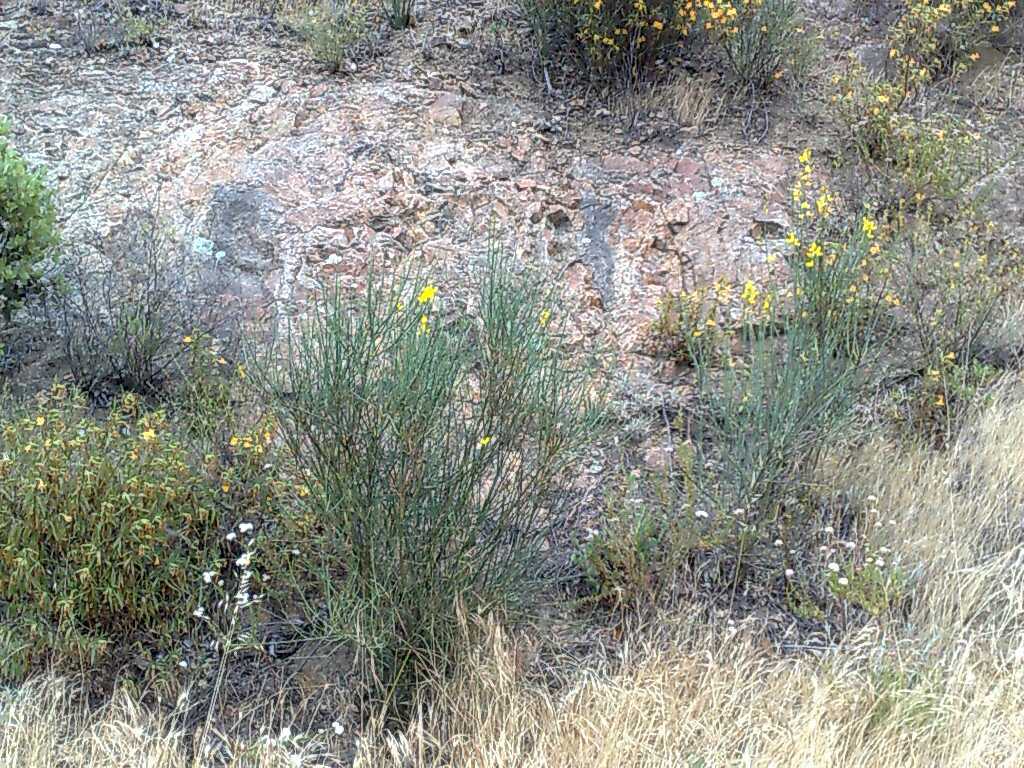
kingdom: Plantae
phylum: Tracheophyta
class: Magnoliopsida
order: Lamiales
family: Phrymaceae
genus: Diplacus
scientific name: Diplacus longiflorus
